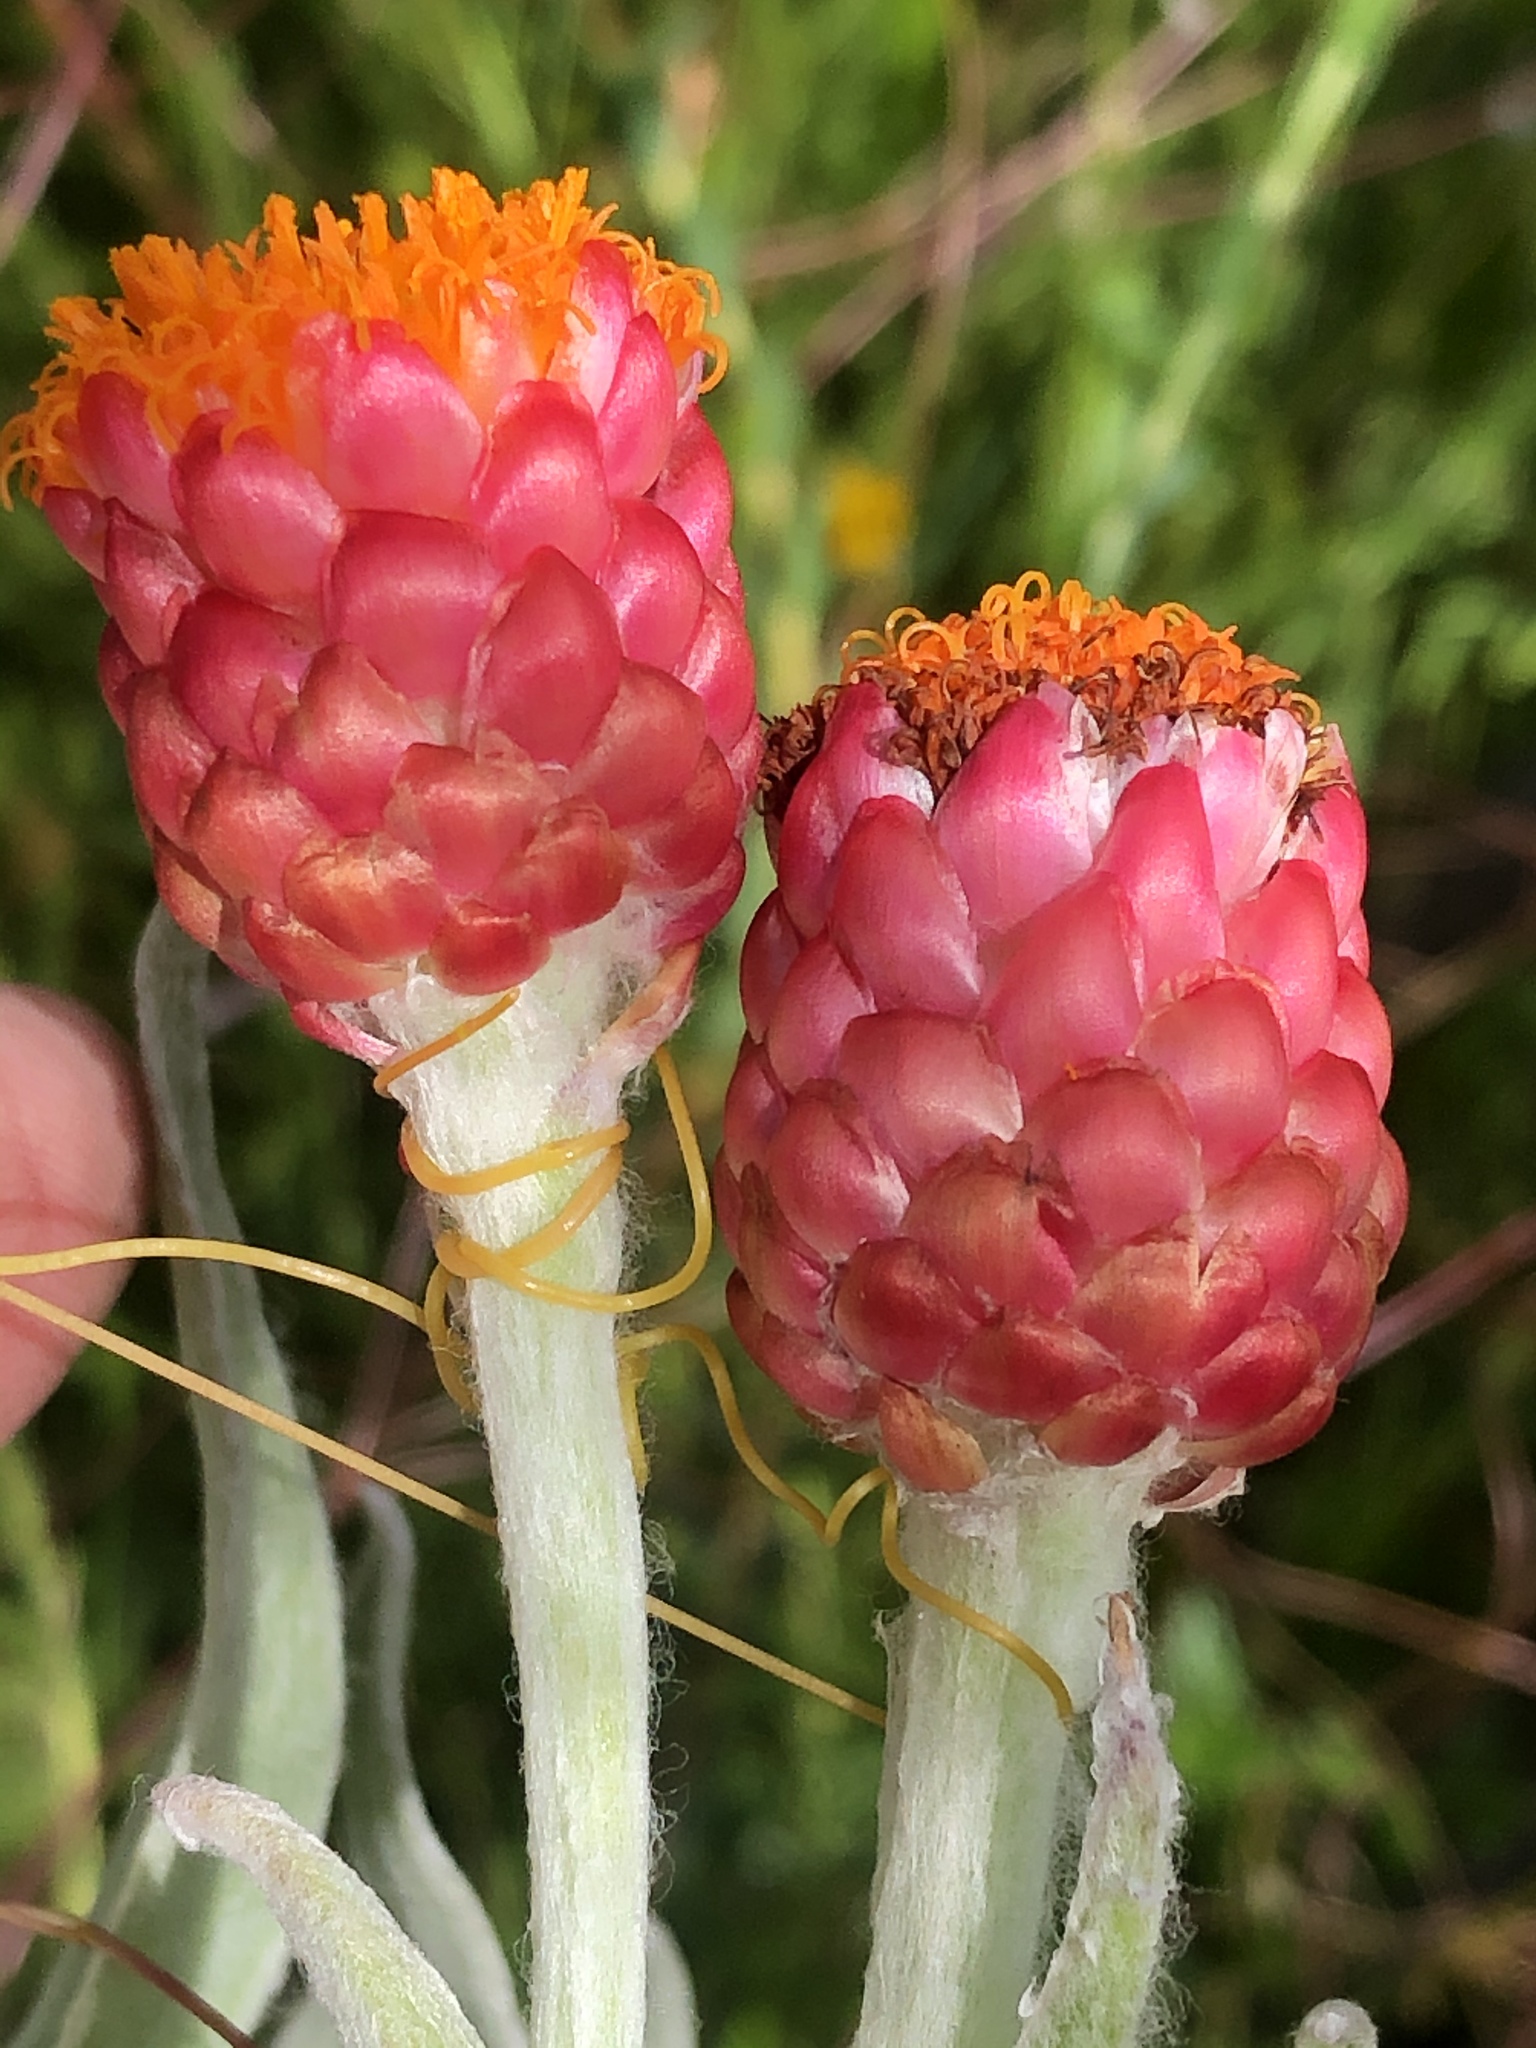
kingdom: Plantae
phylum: Tracheophyta
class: Magnoliopsida
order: Asterales
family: Asteraceae
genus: Syncarpha
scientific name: Syncarpha eximia
